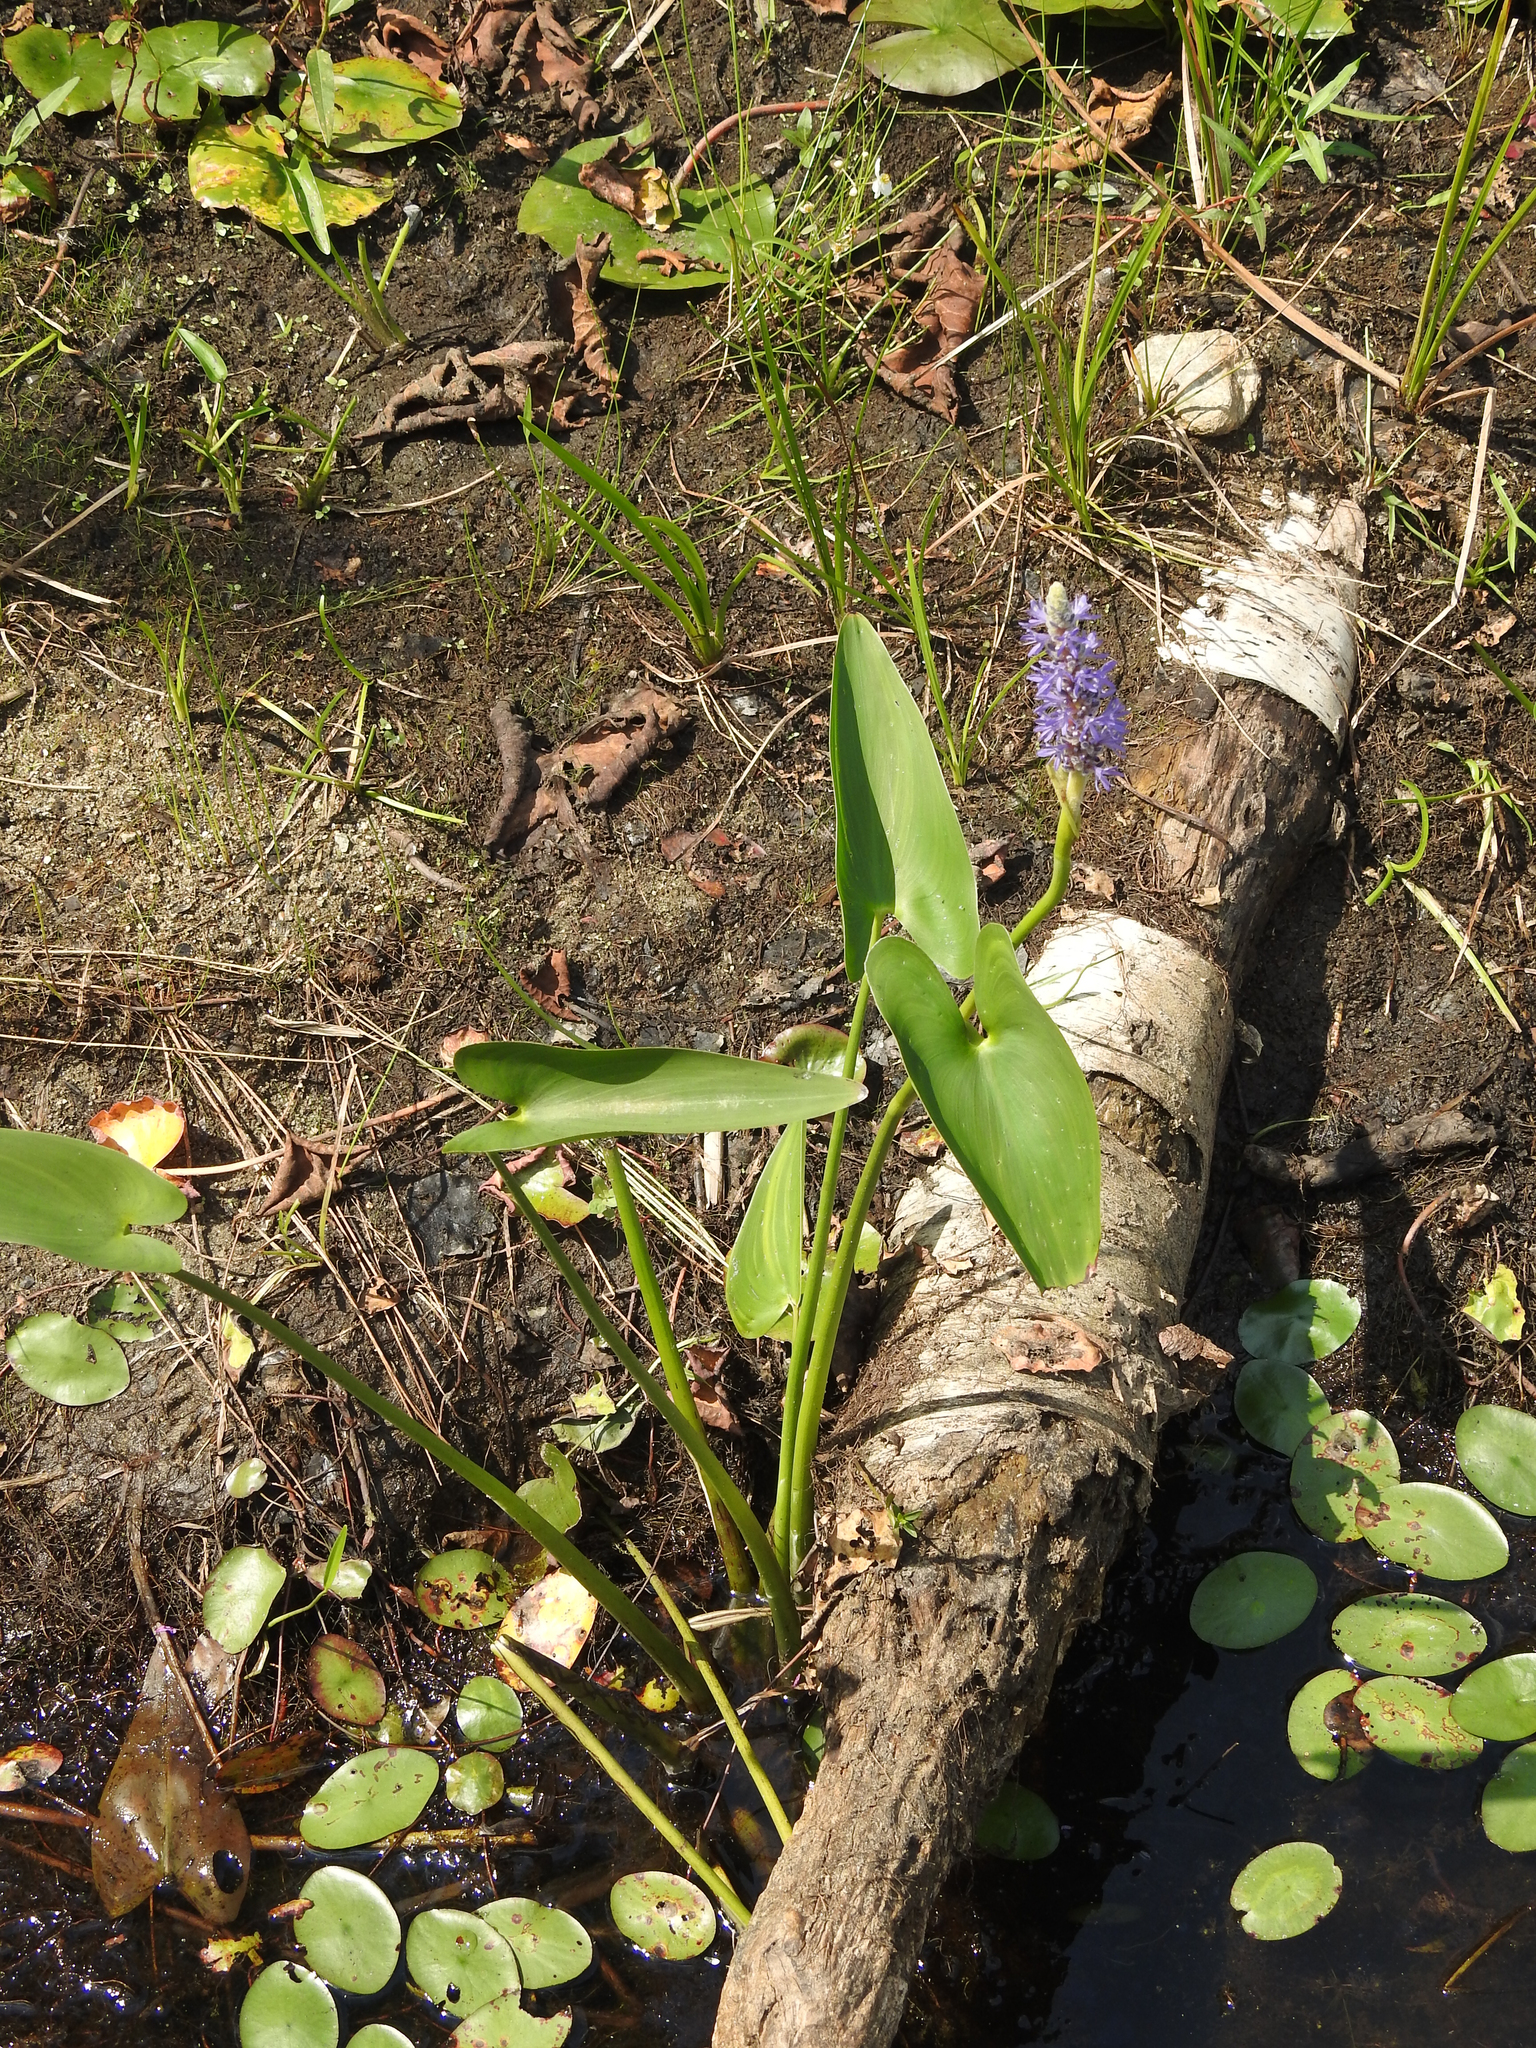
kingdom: Plantae
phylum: Tracheophyta
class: Liliopsida
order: Commelinales
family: Pontederiaceae
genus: Pontederia
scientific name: Pontederia cordata
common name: Pickerelweed
